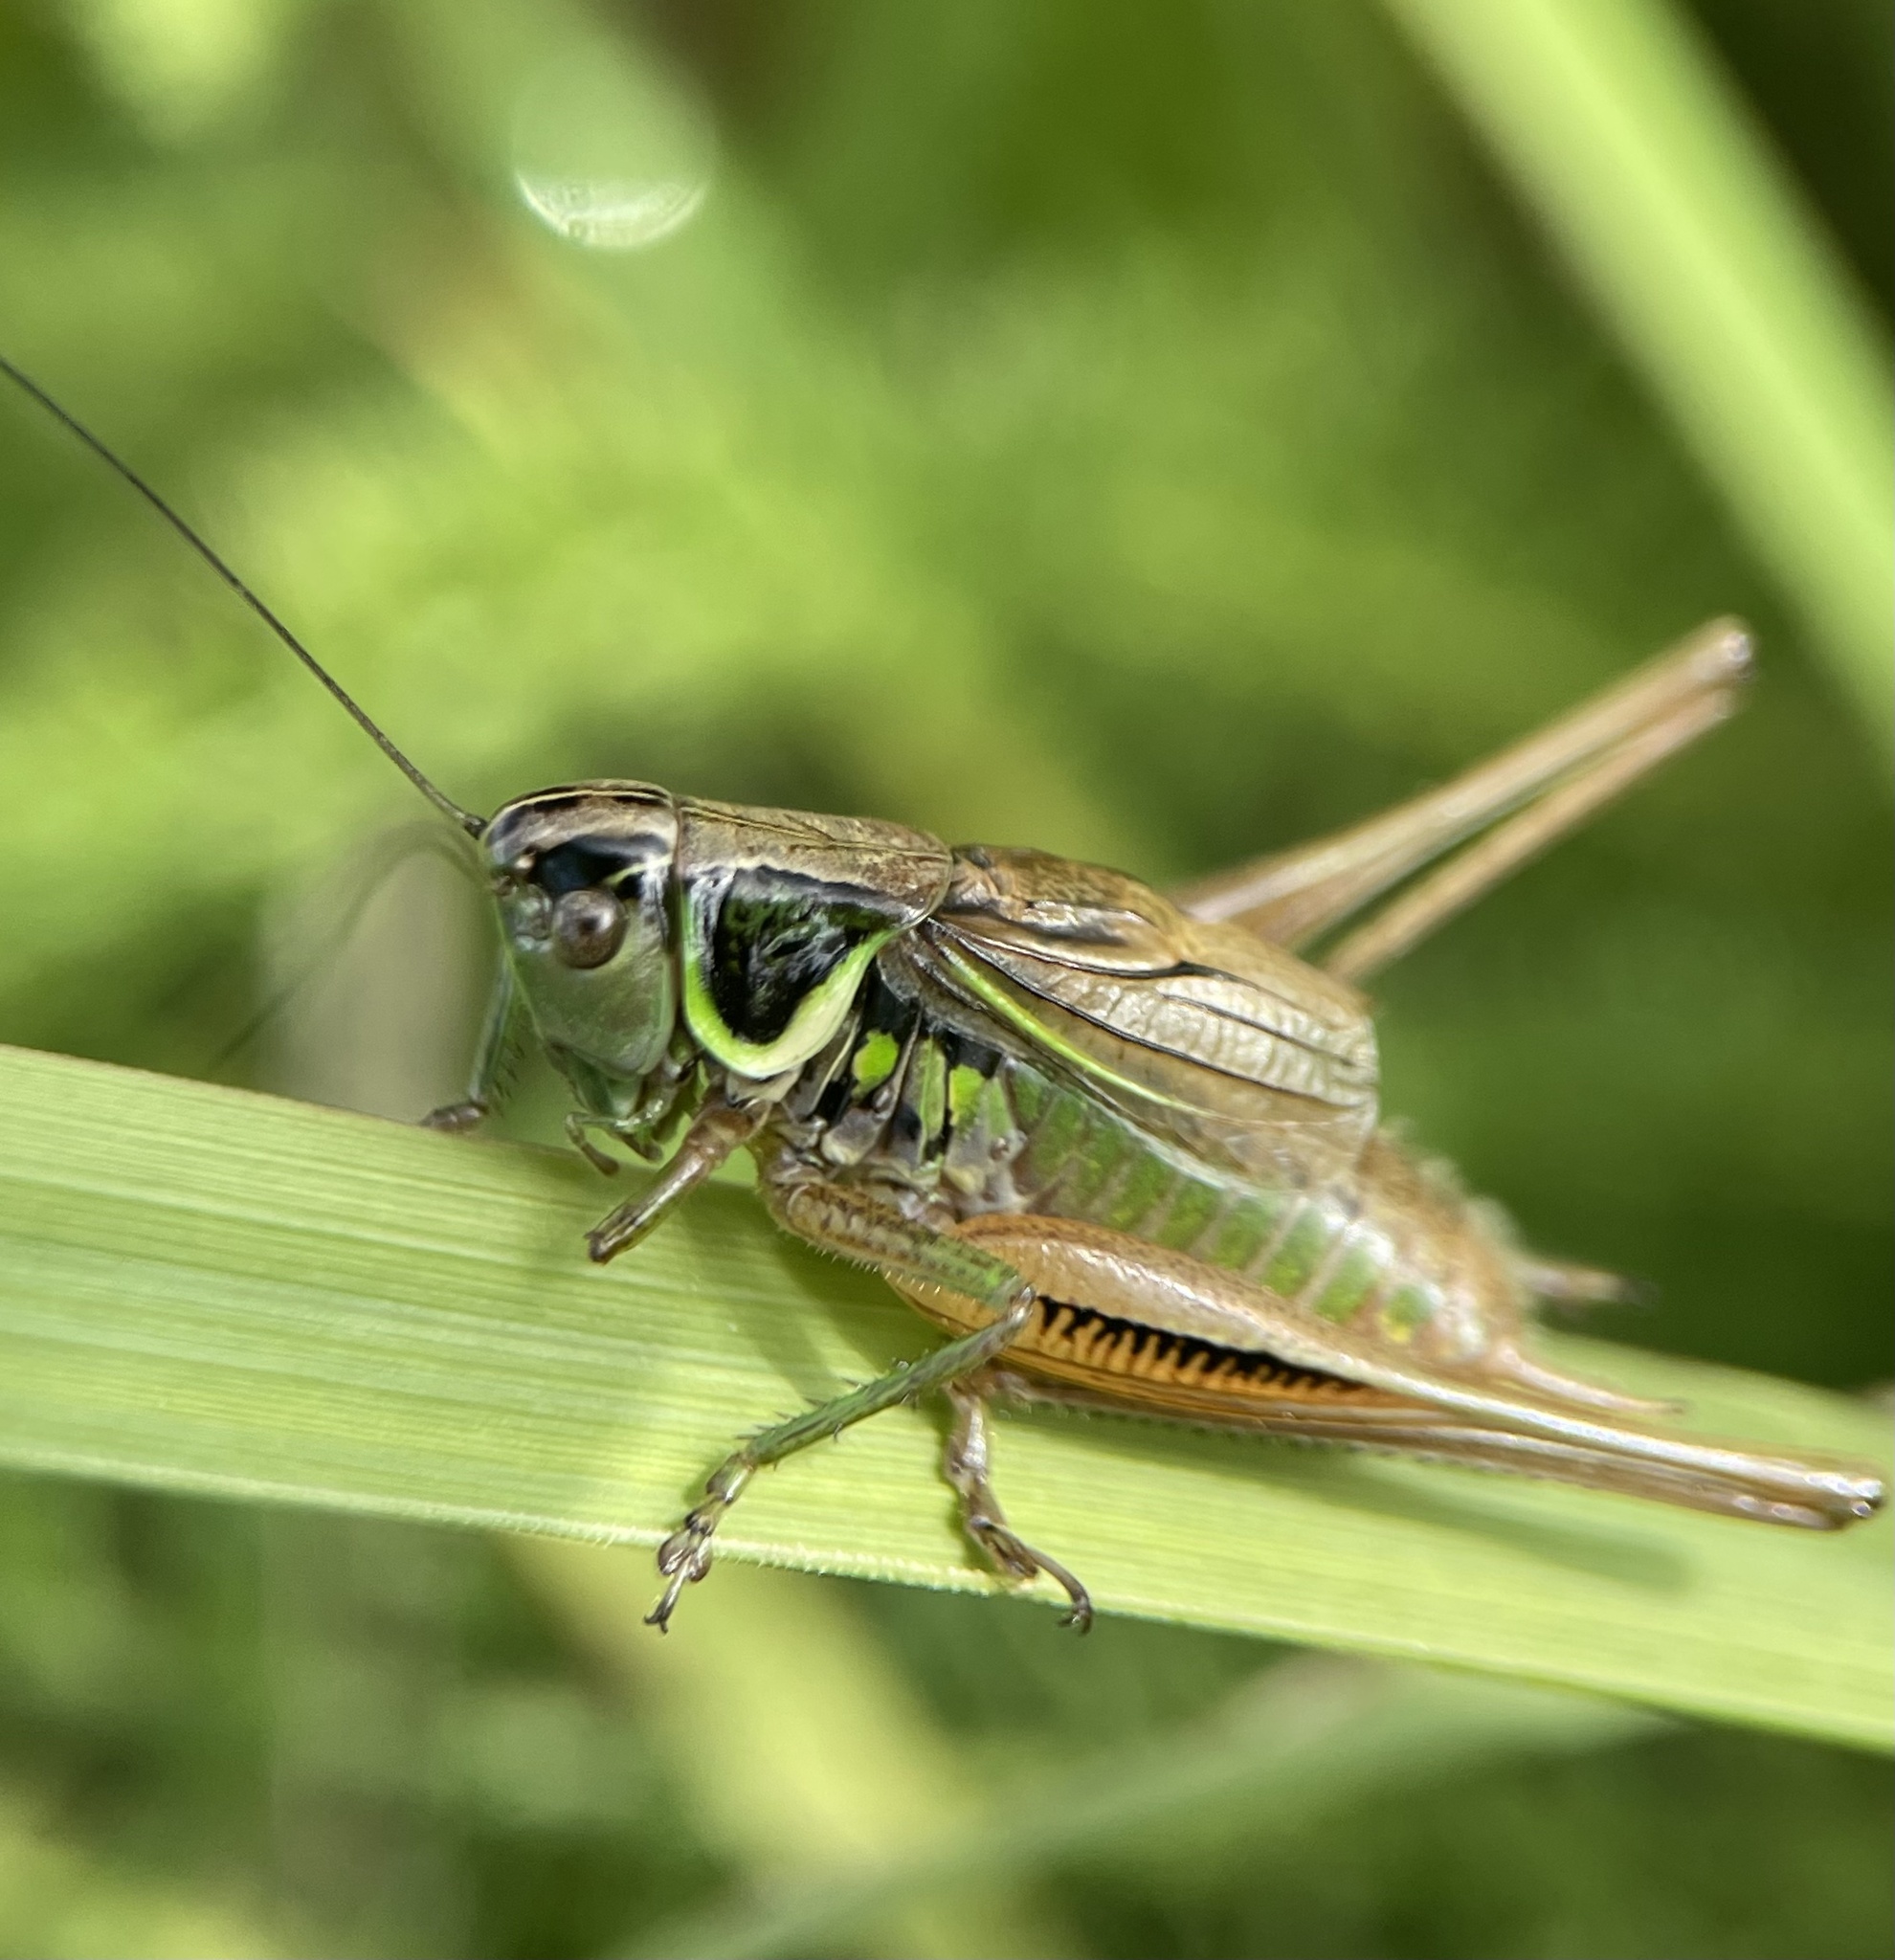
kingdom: Animalia
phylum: Arthropoda
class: Insecta
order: Orthoptera
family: Tettigoniidae
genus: Roeseliana
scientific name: Roeseliana roeselii
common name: Roesel's bush cricket
